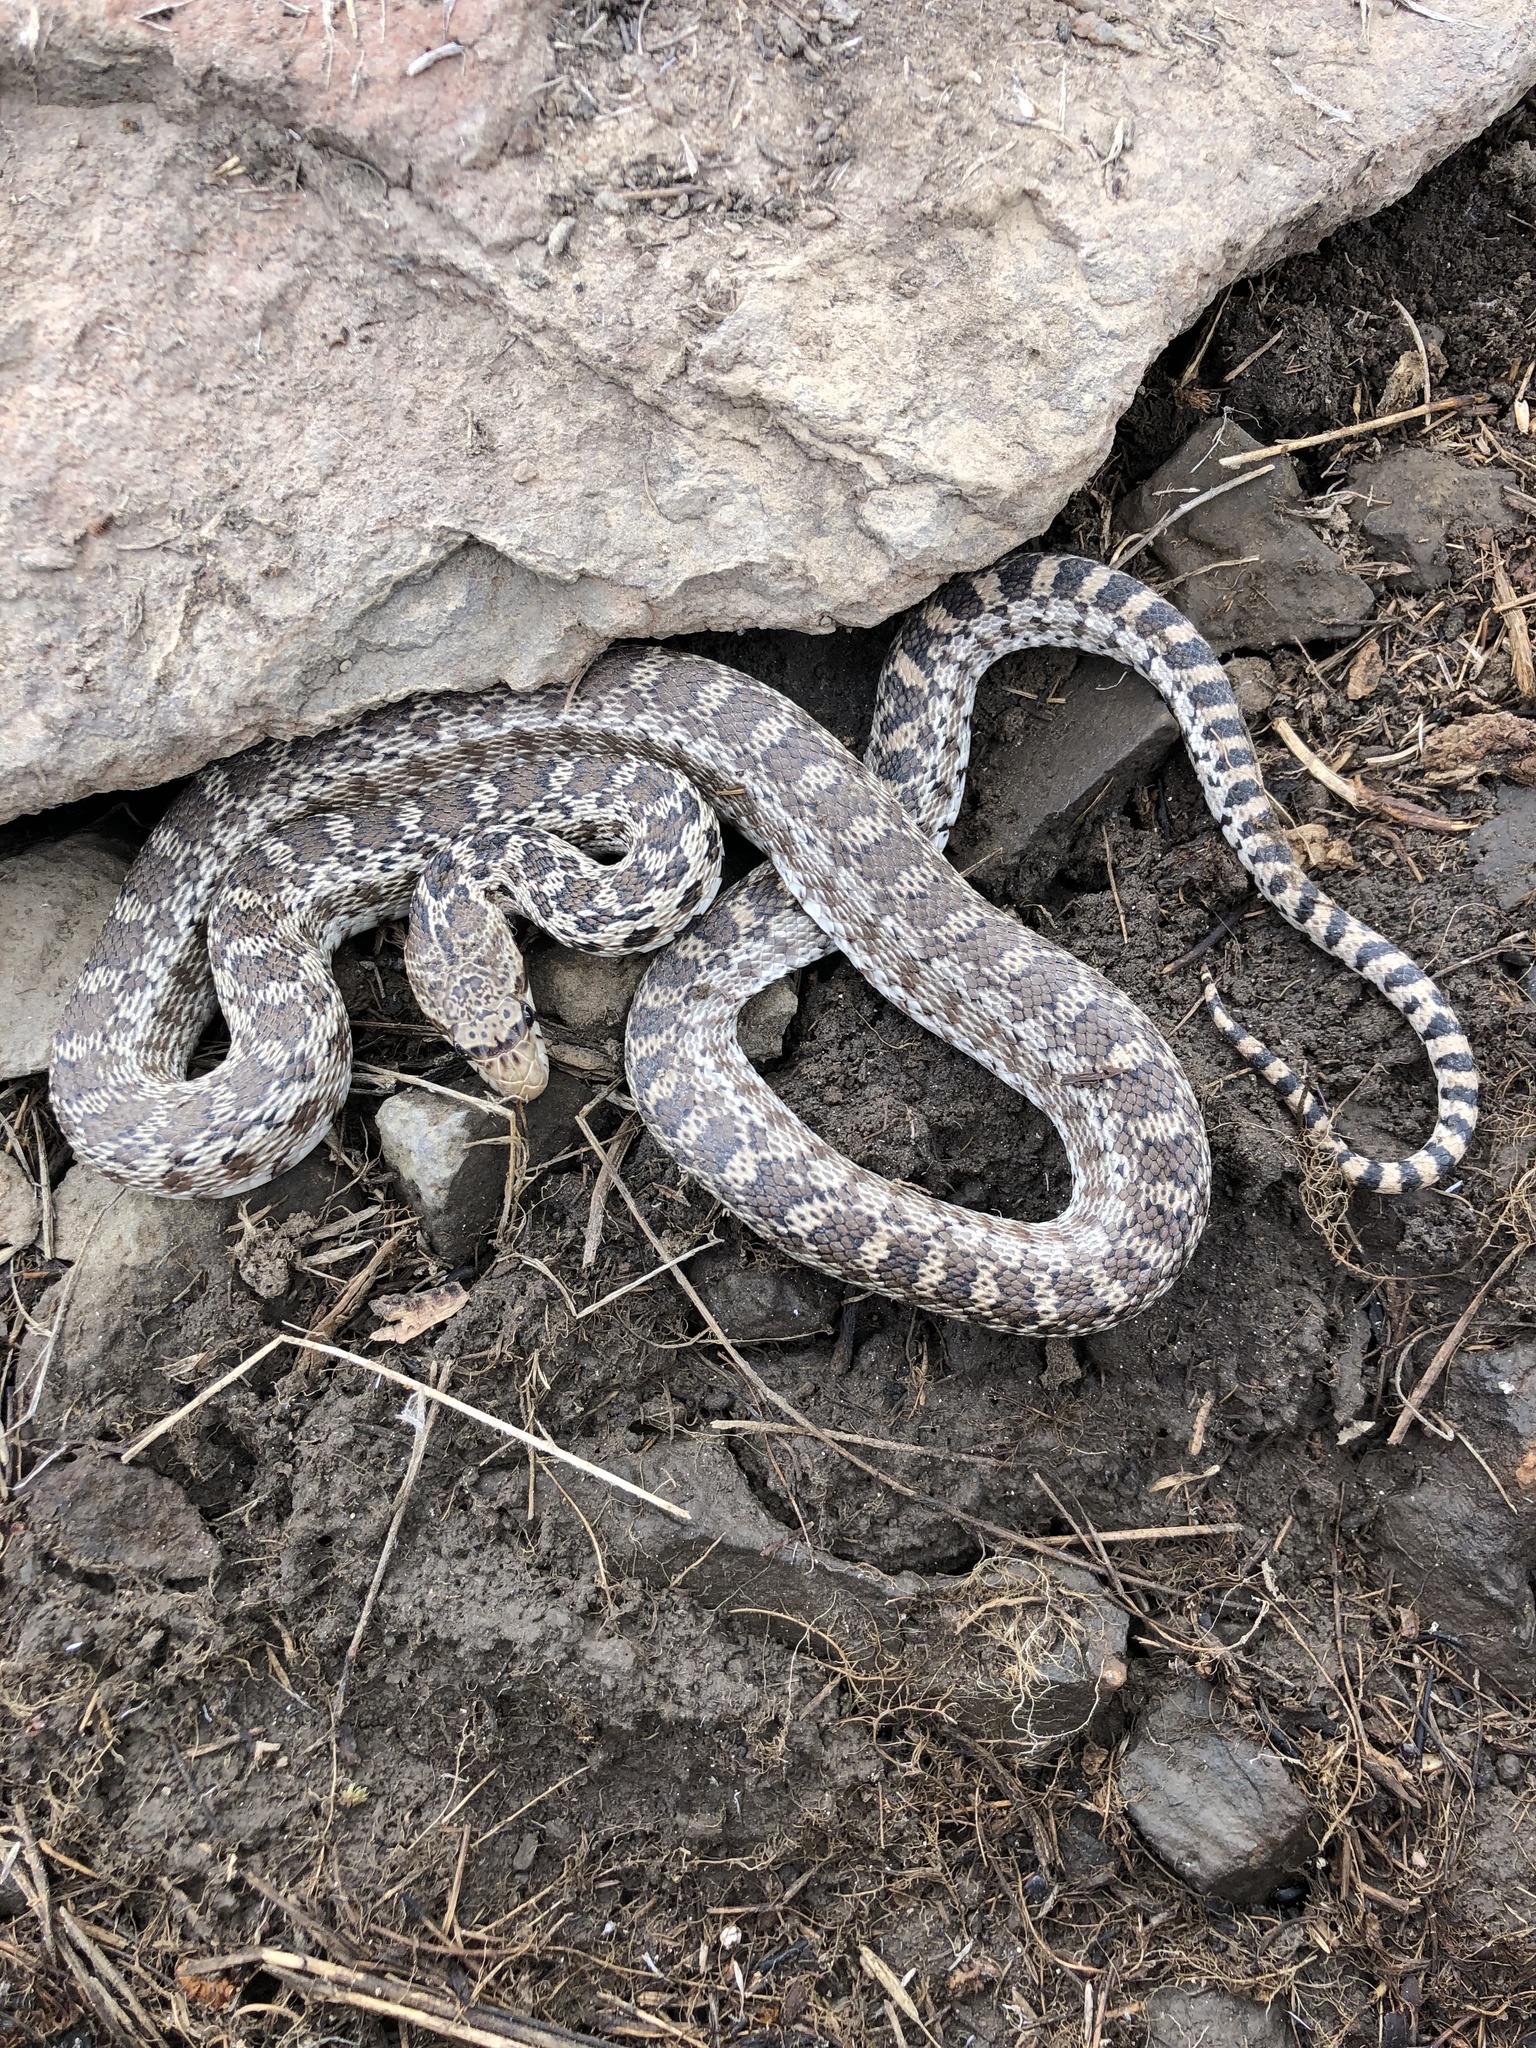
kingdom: Animalia
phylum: Chordata
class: Squamata
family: Colubridae
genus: Pituophis
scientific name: Pituophis catenifer
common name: Gopher snake
